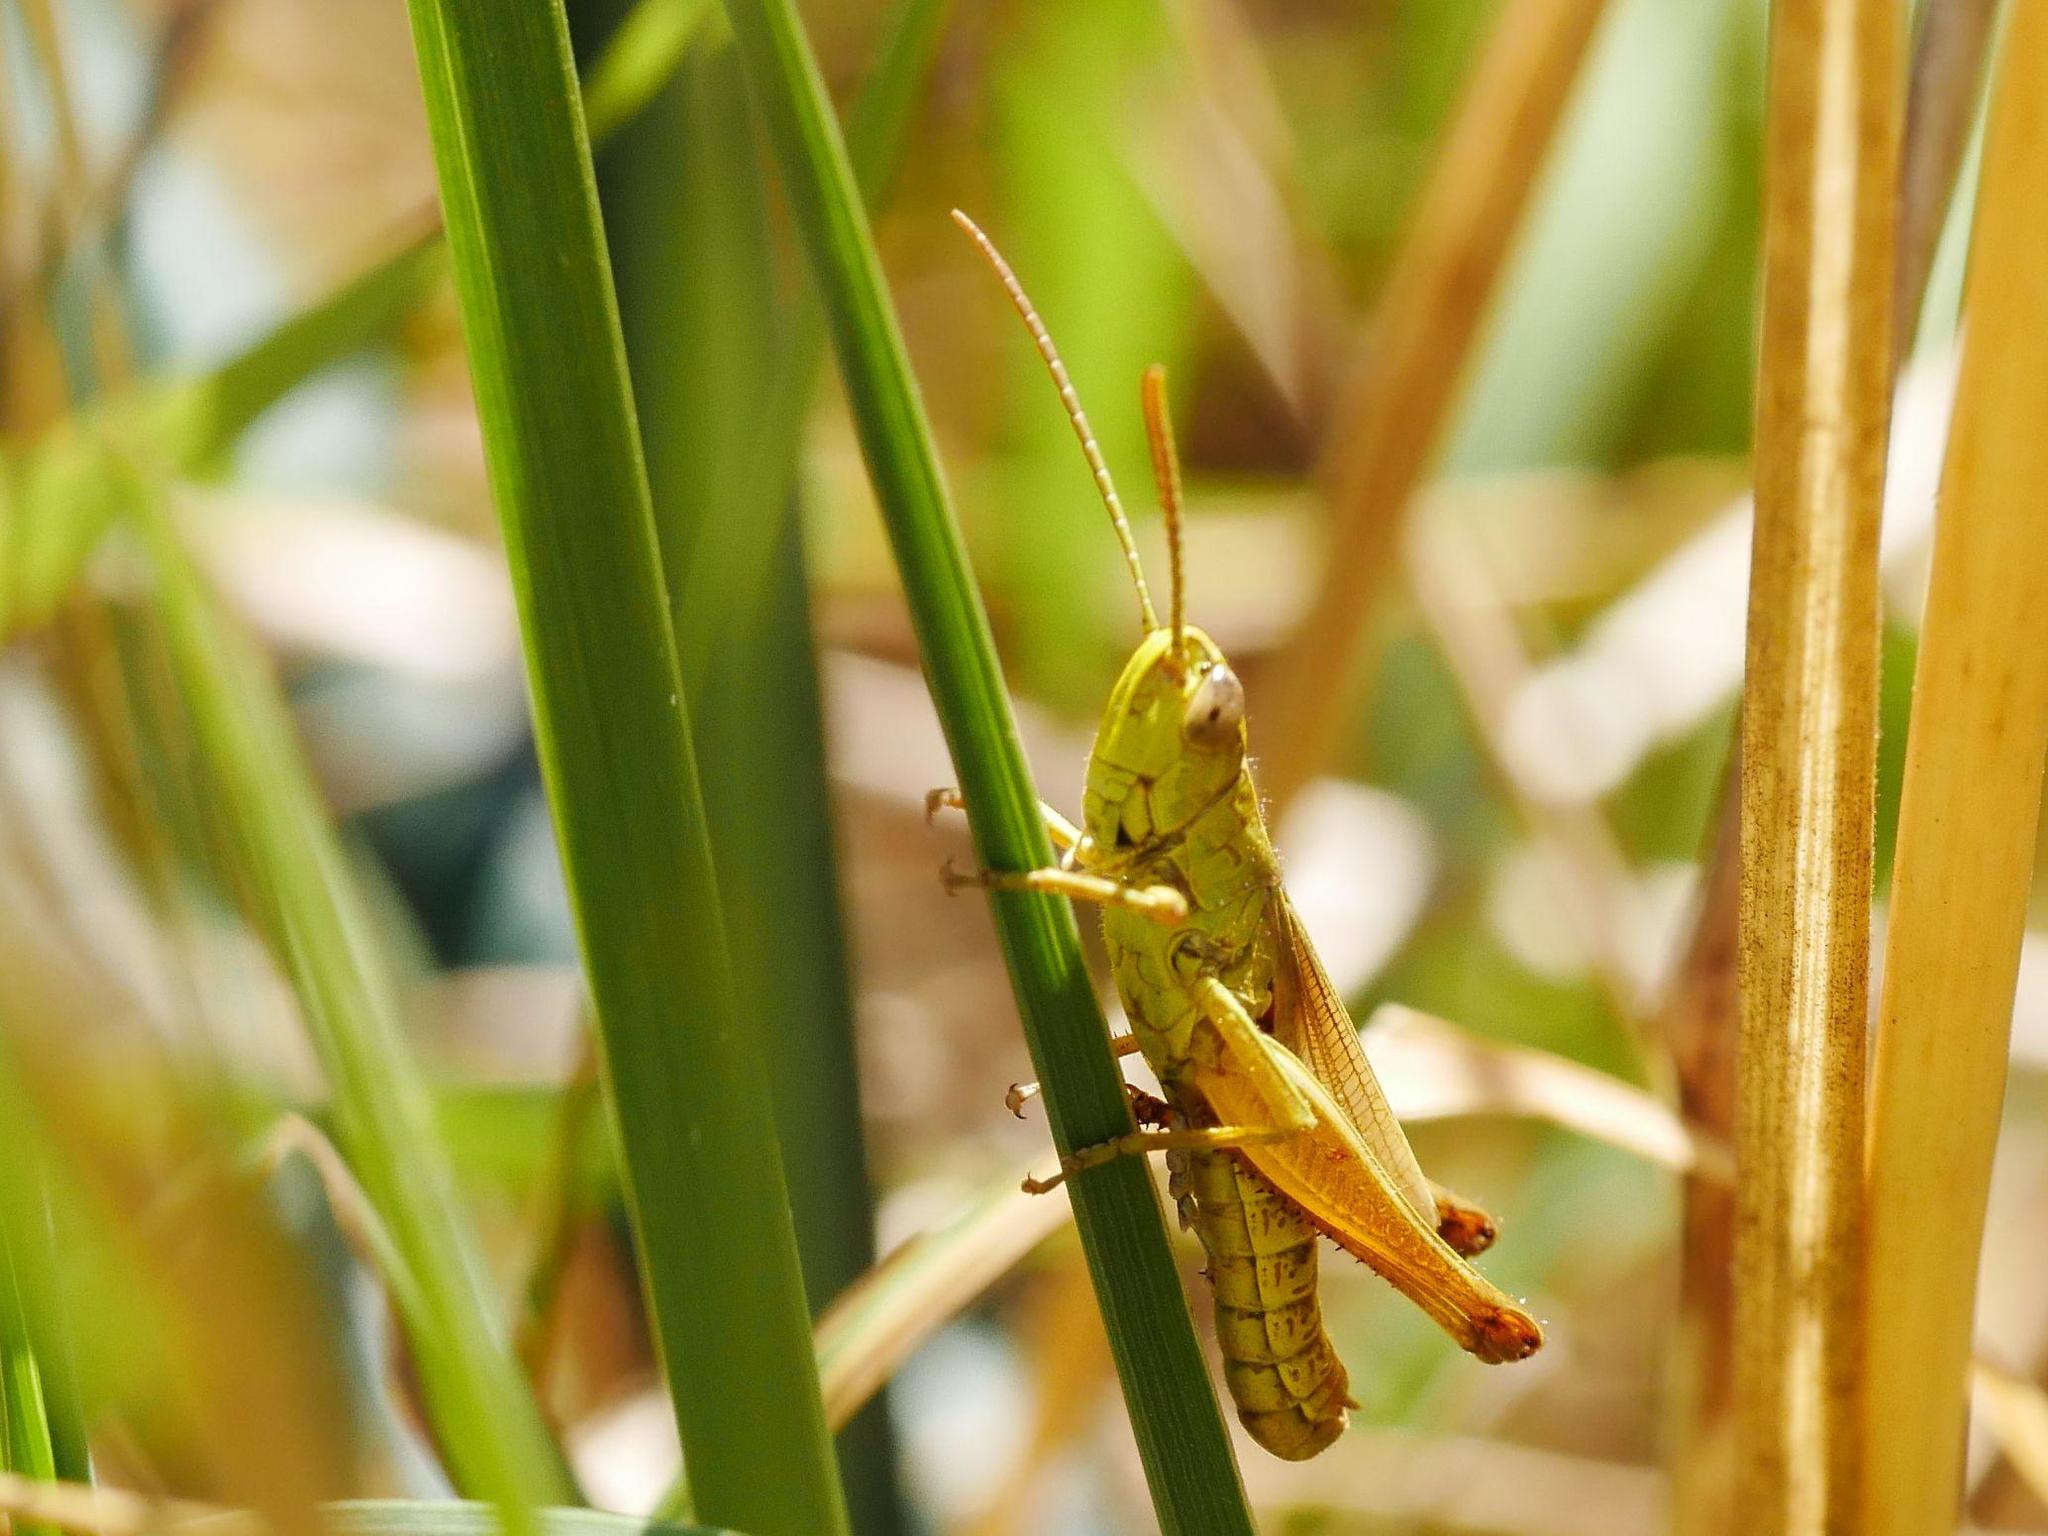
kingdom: Animalia
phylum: Arthropoda
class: Insecta
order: Orthoptera
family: Acrididae
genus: Pseudochorthippus
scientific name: Pseudochorthippus parallelus
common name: Meadow grasshopper
